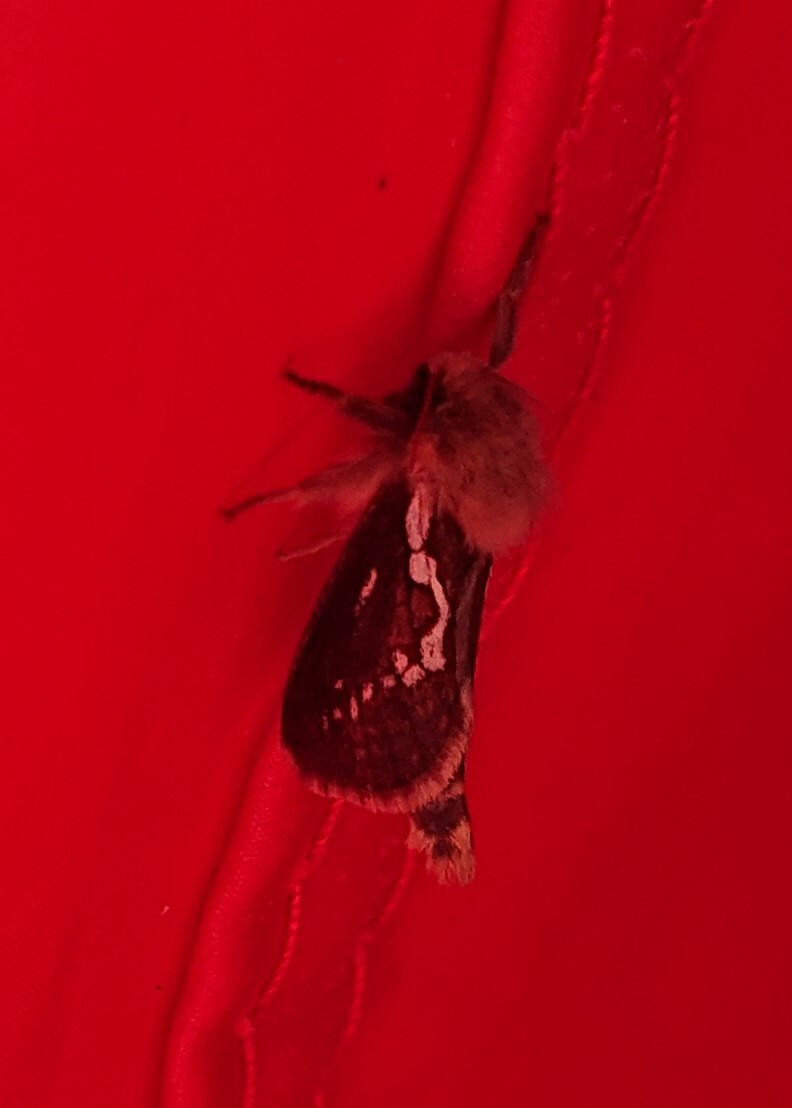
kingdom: Animalia
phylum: Arthropoda
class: Insecta
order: Lepidoptera
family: Hepialidae
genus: Korscheltellus
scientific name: Korscheltellus lupulina
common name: Common swift
